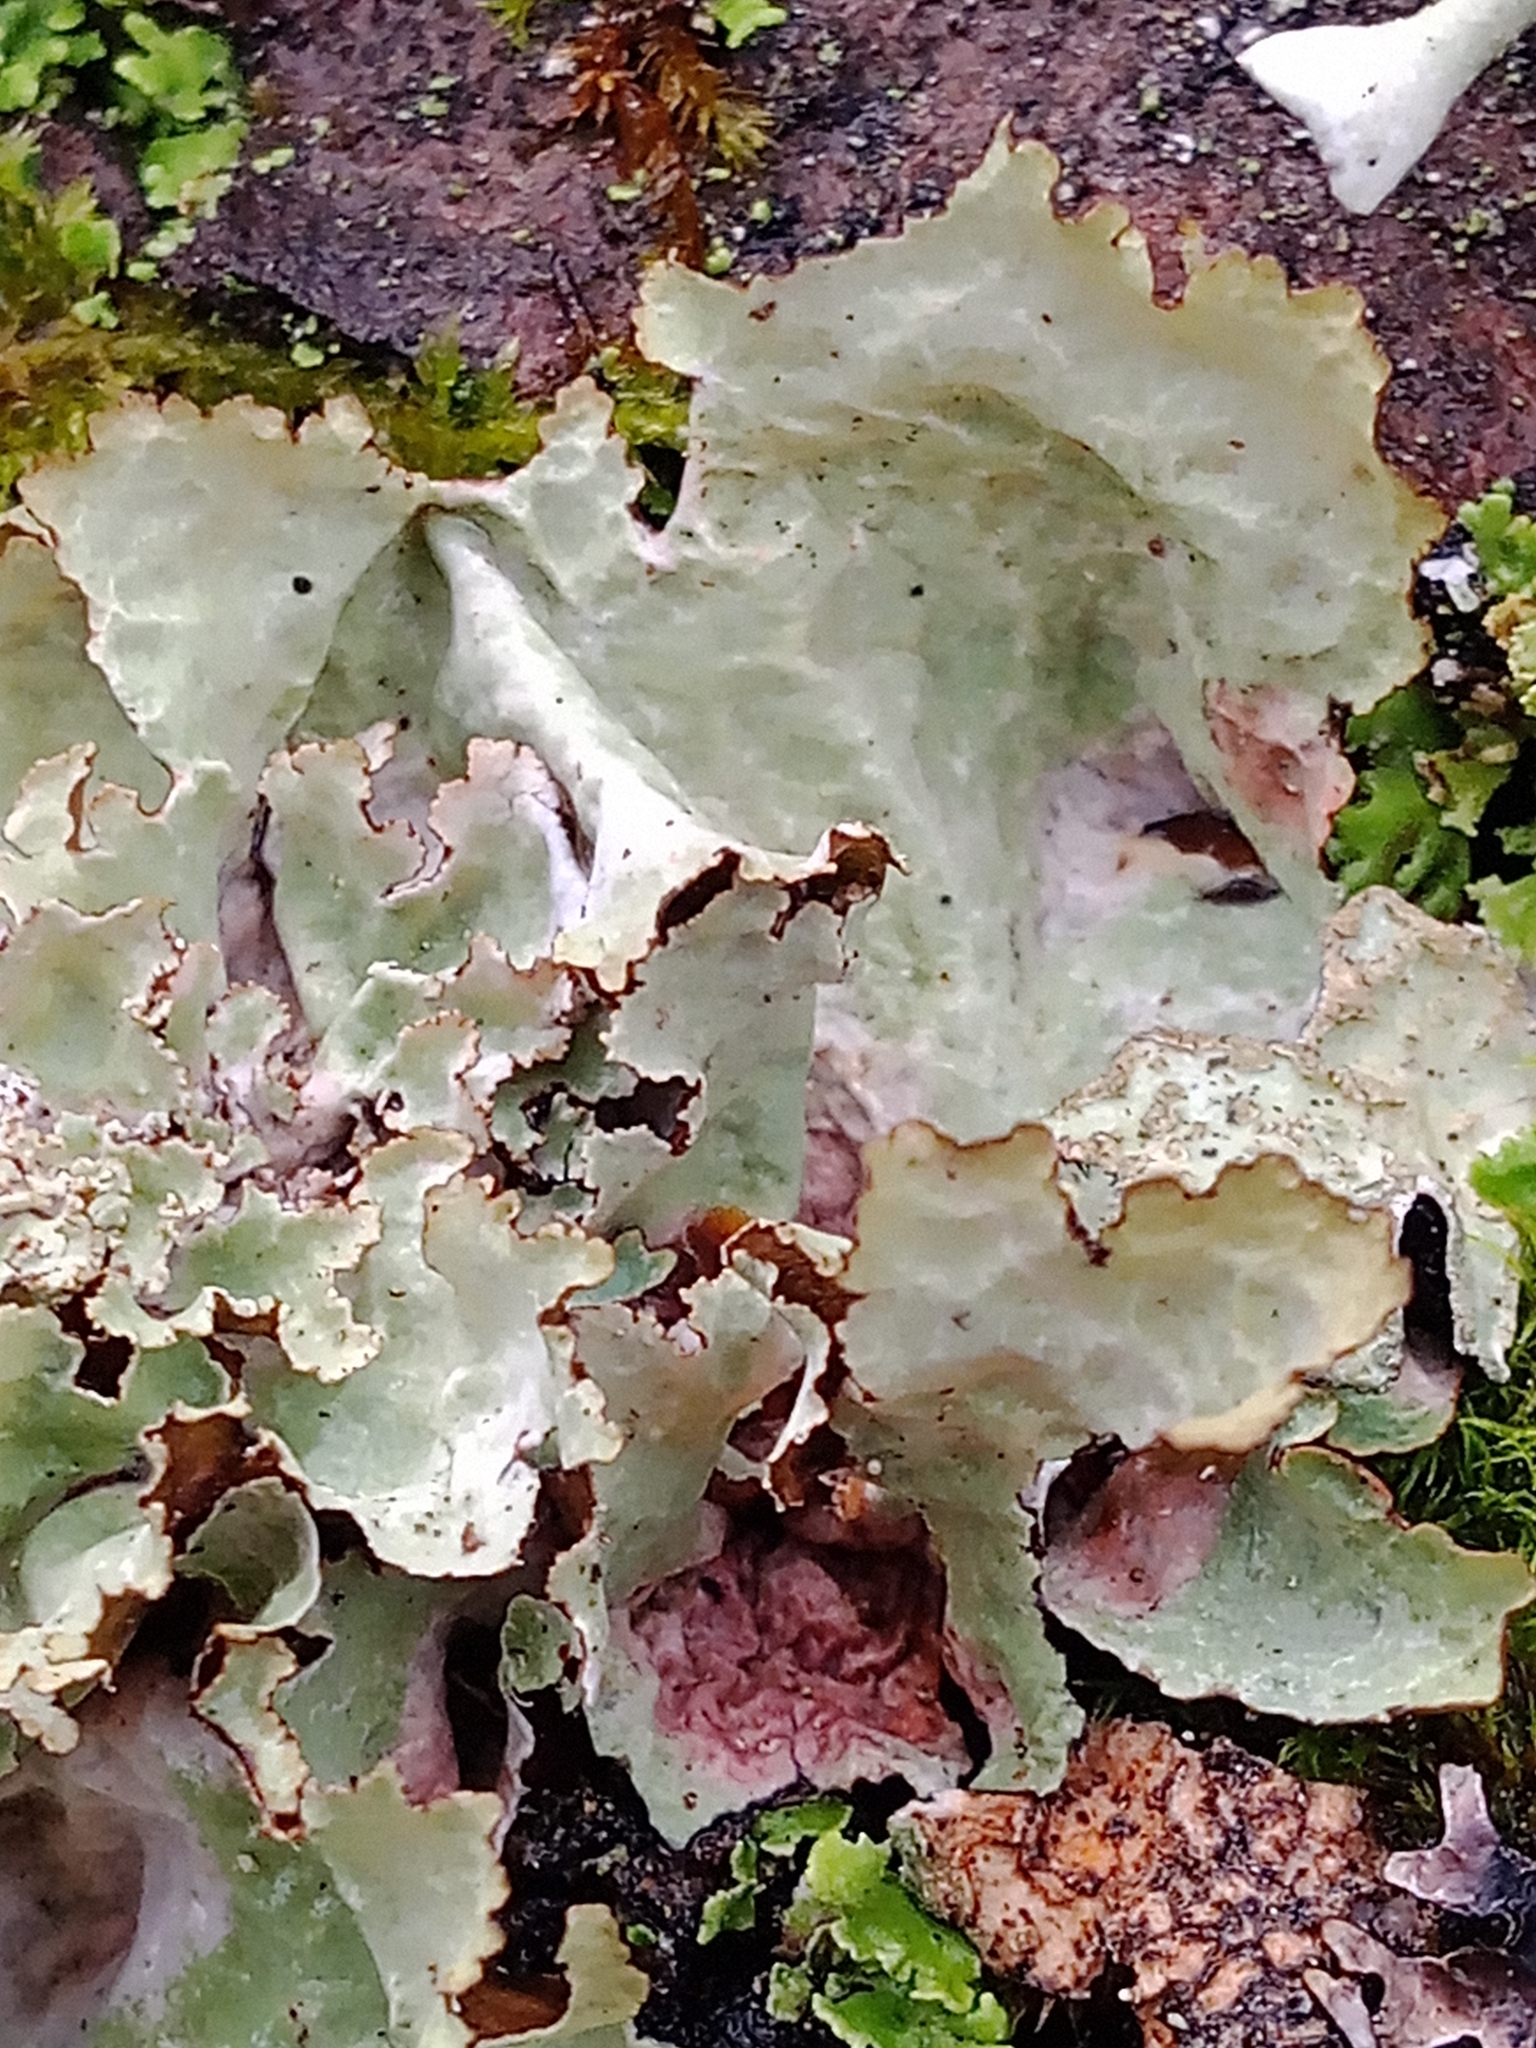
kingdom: Fungi
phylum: Ascomycota
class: Lecanoromycetes
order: Lecanorales
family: Parmeliaceae
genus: Platismatia
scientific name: Platismatia glauca
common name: Varied rag lichen
